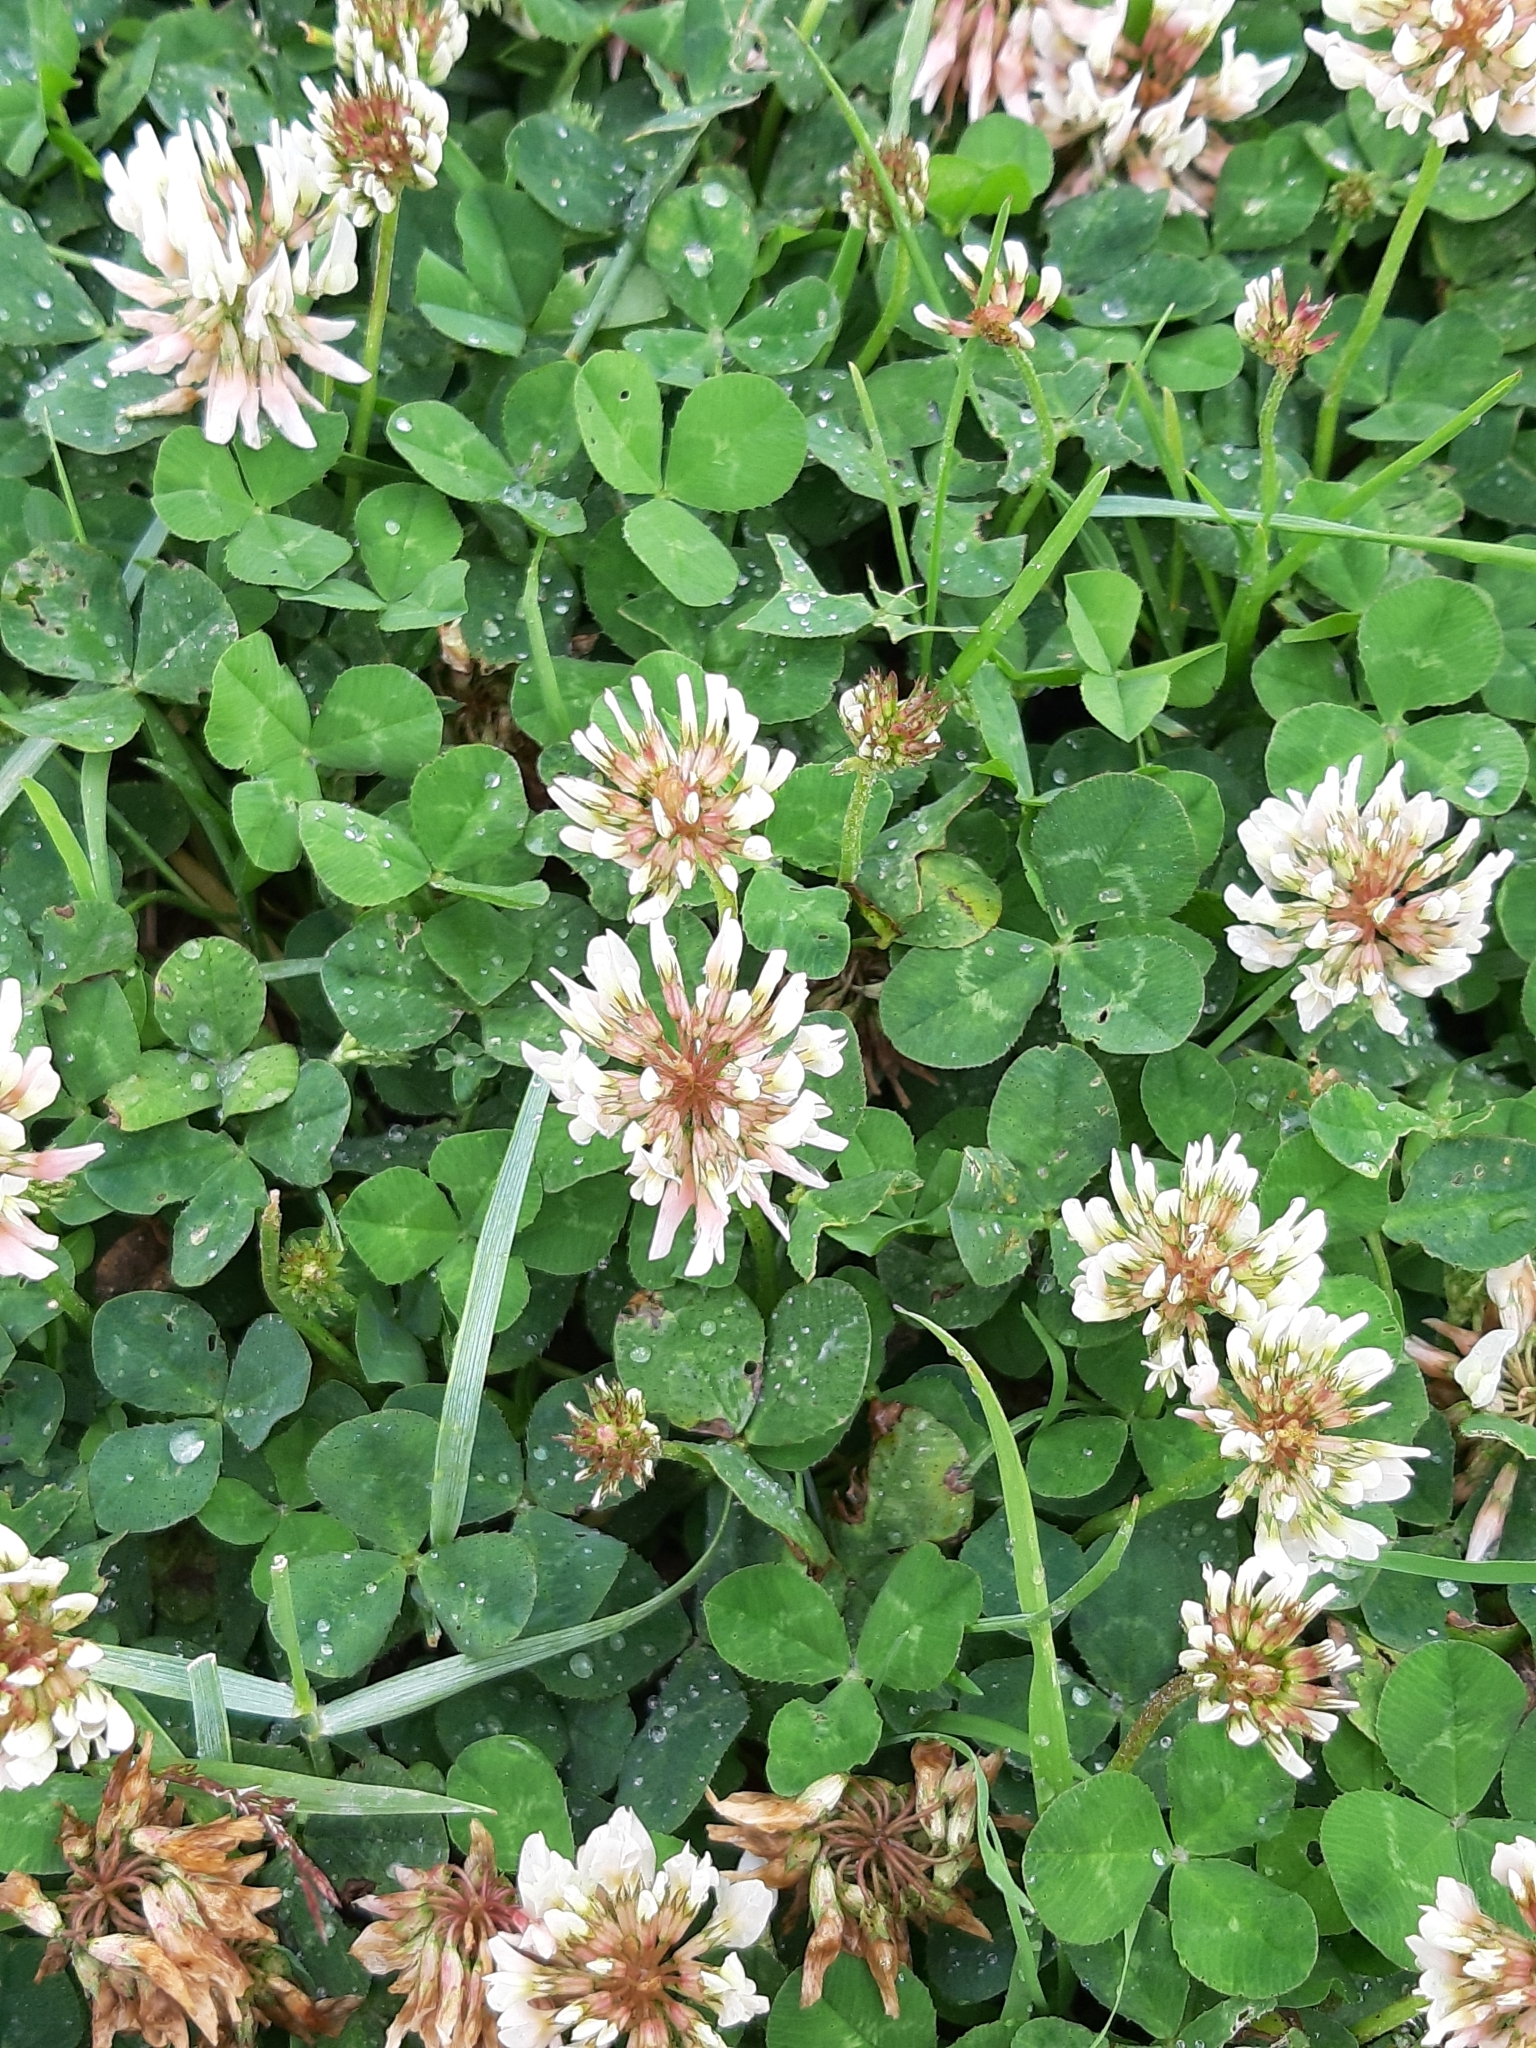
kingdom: Plantae
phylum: Tracheophyta
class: Magnoliopsida
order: Fabales
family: Fabaceae
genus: Trifolium
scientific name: Trifolium repens
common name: White clover
